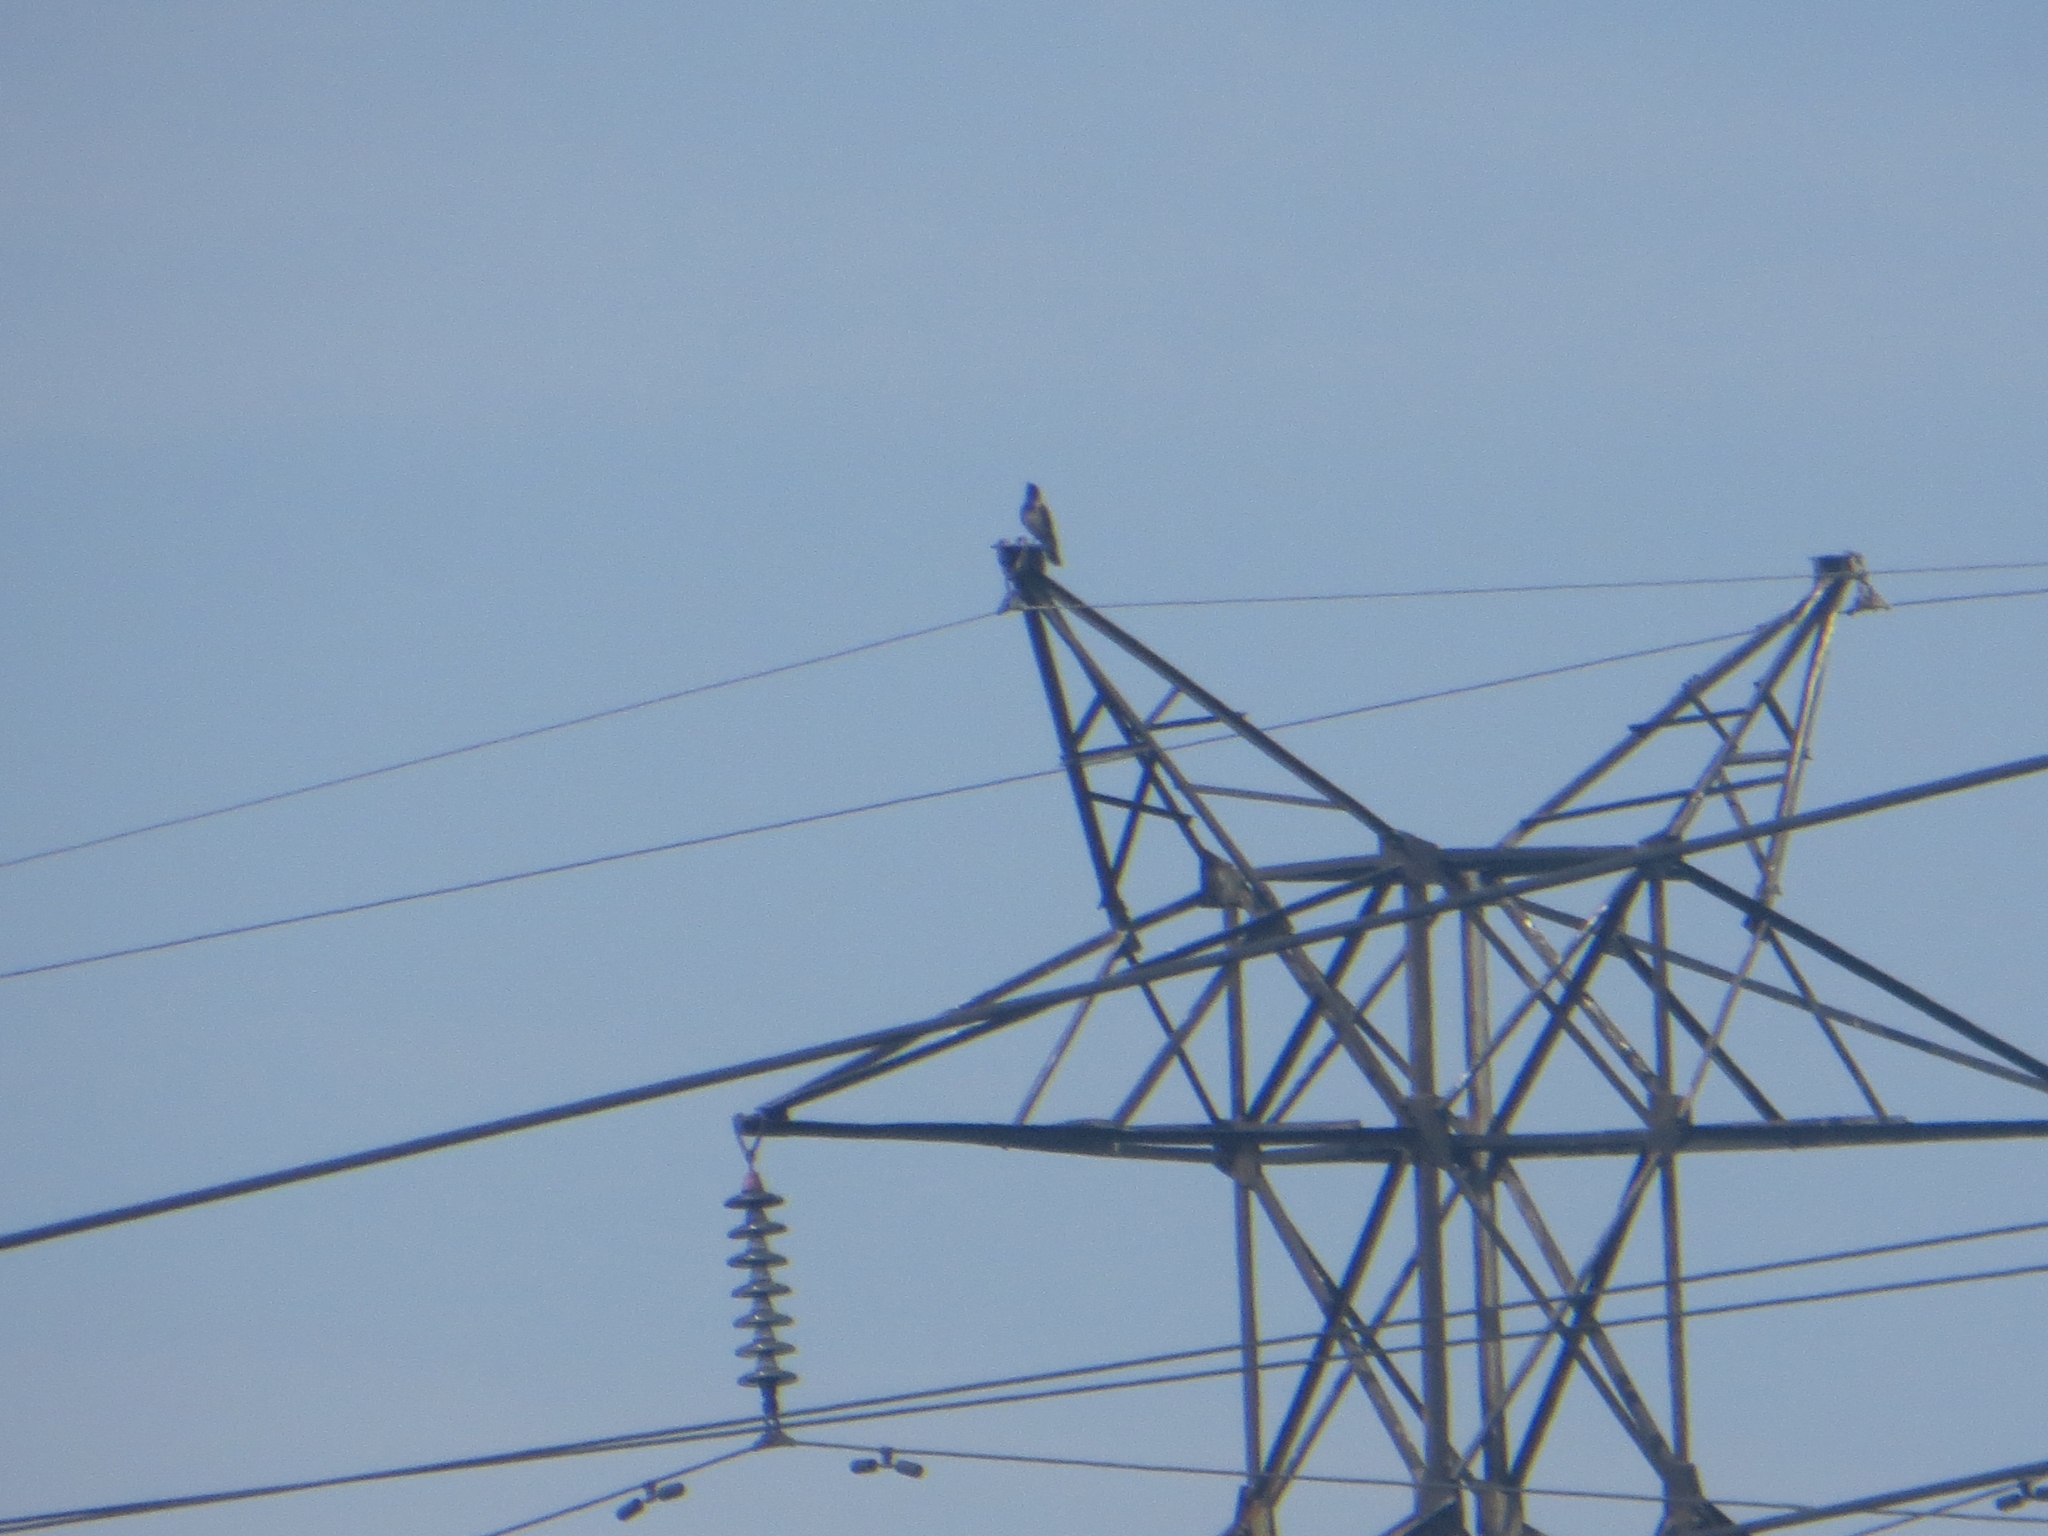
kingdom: Animalia
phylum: Chordata
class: Aves
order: Passeriformes
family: Corvidae
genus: Corvus
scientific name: Corvus cornix
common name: Hooded crow
